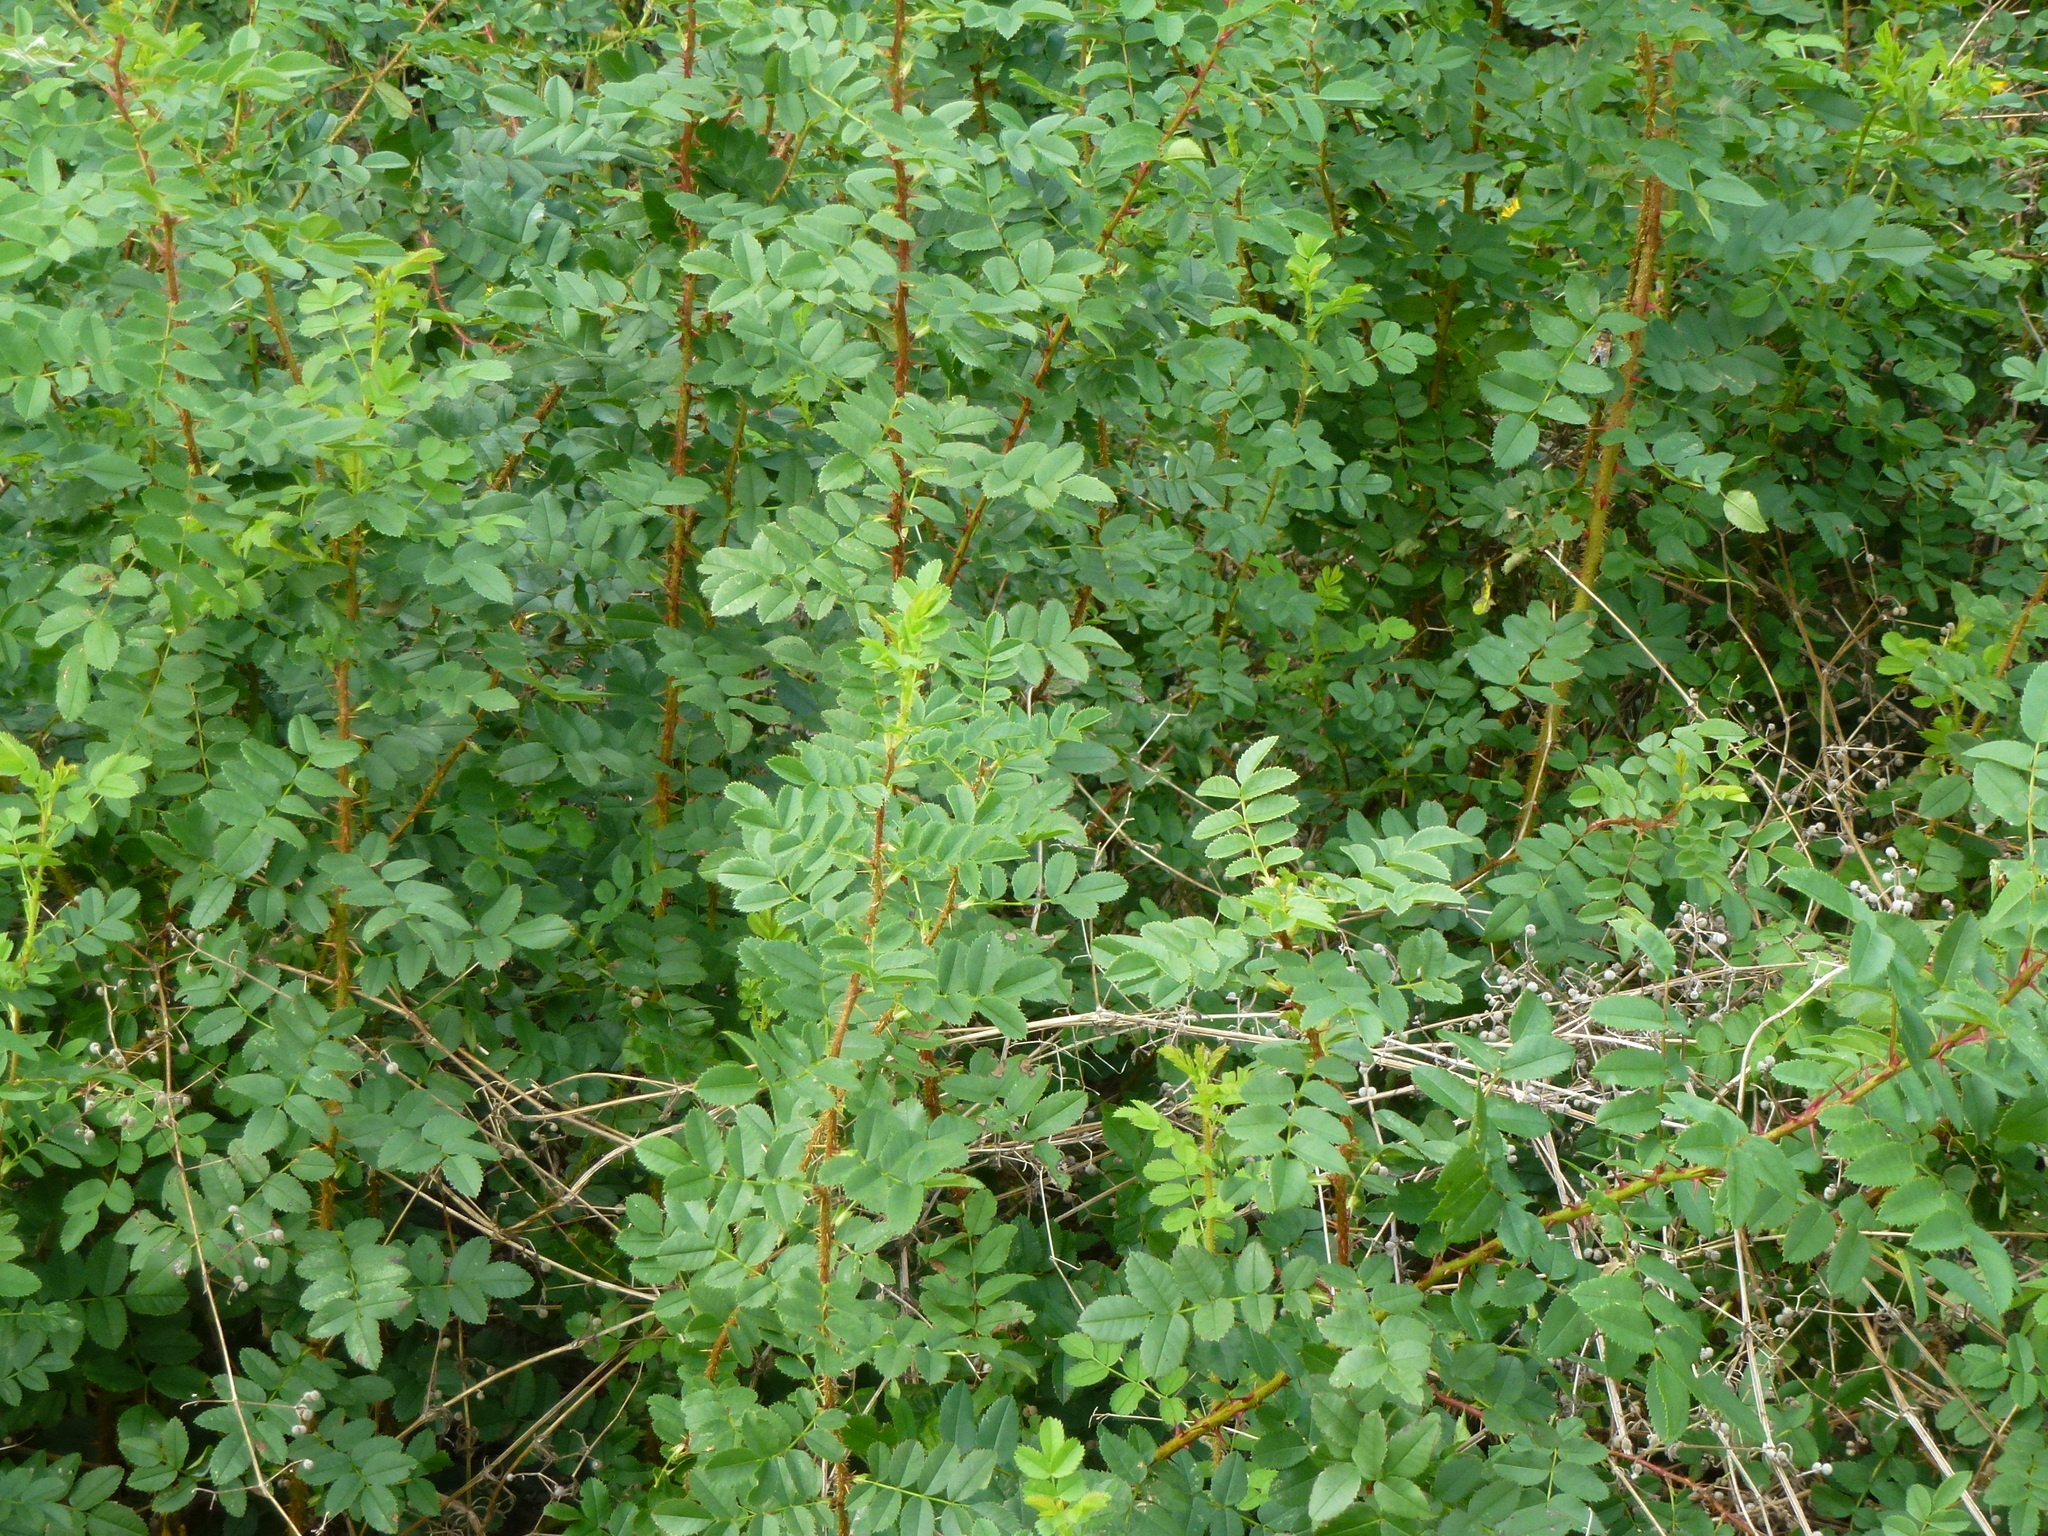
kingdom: Plantae
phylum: Tracheophyta
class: Magnoliopsida
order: Rosales
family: Rosaceae
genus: Rosa
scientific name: Rosa spinosissima
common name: Burnet rose
